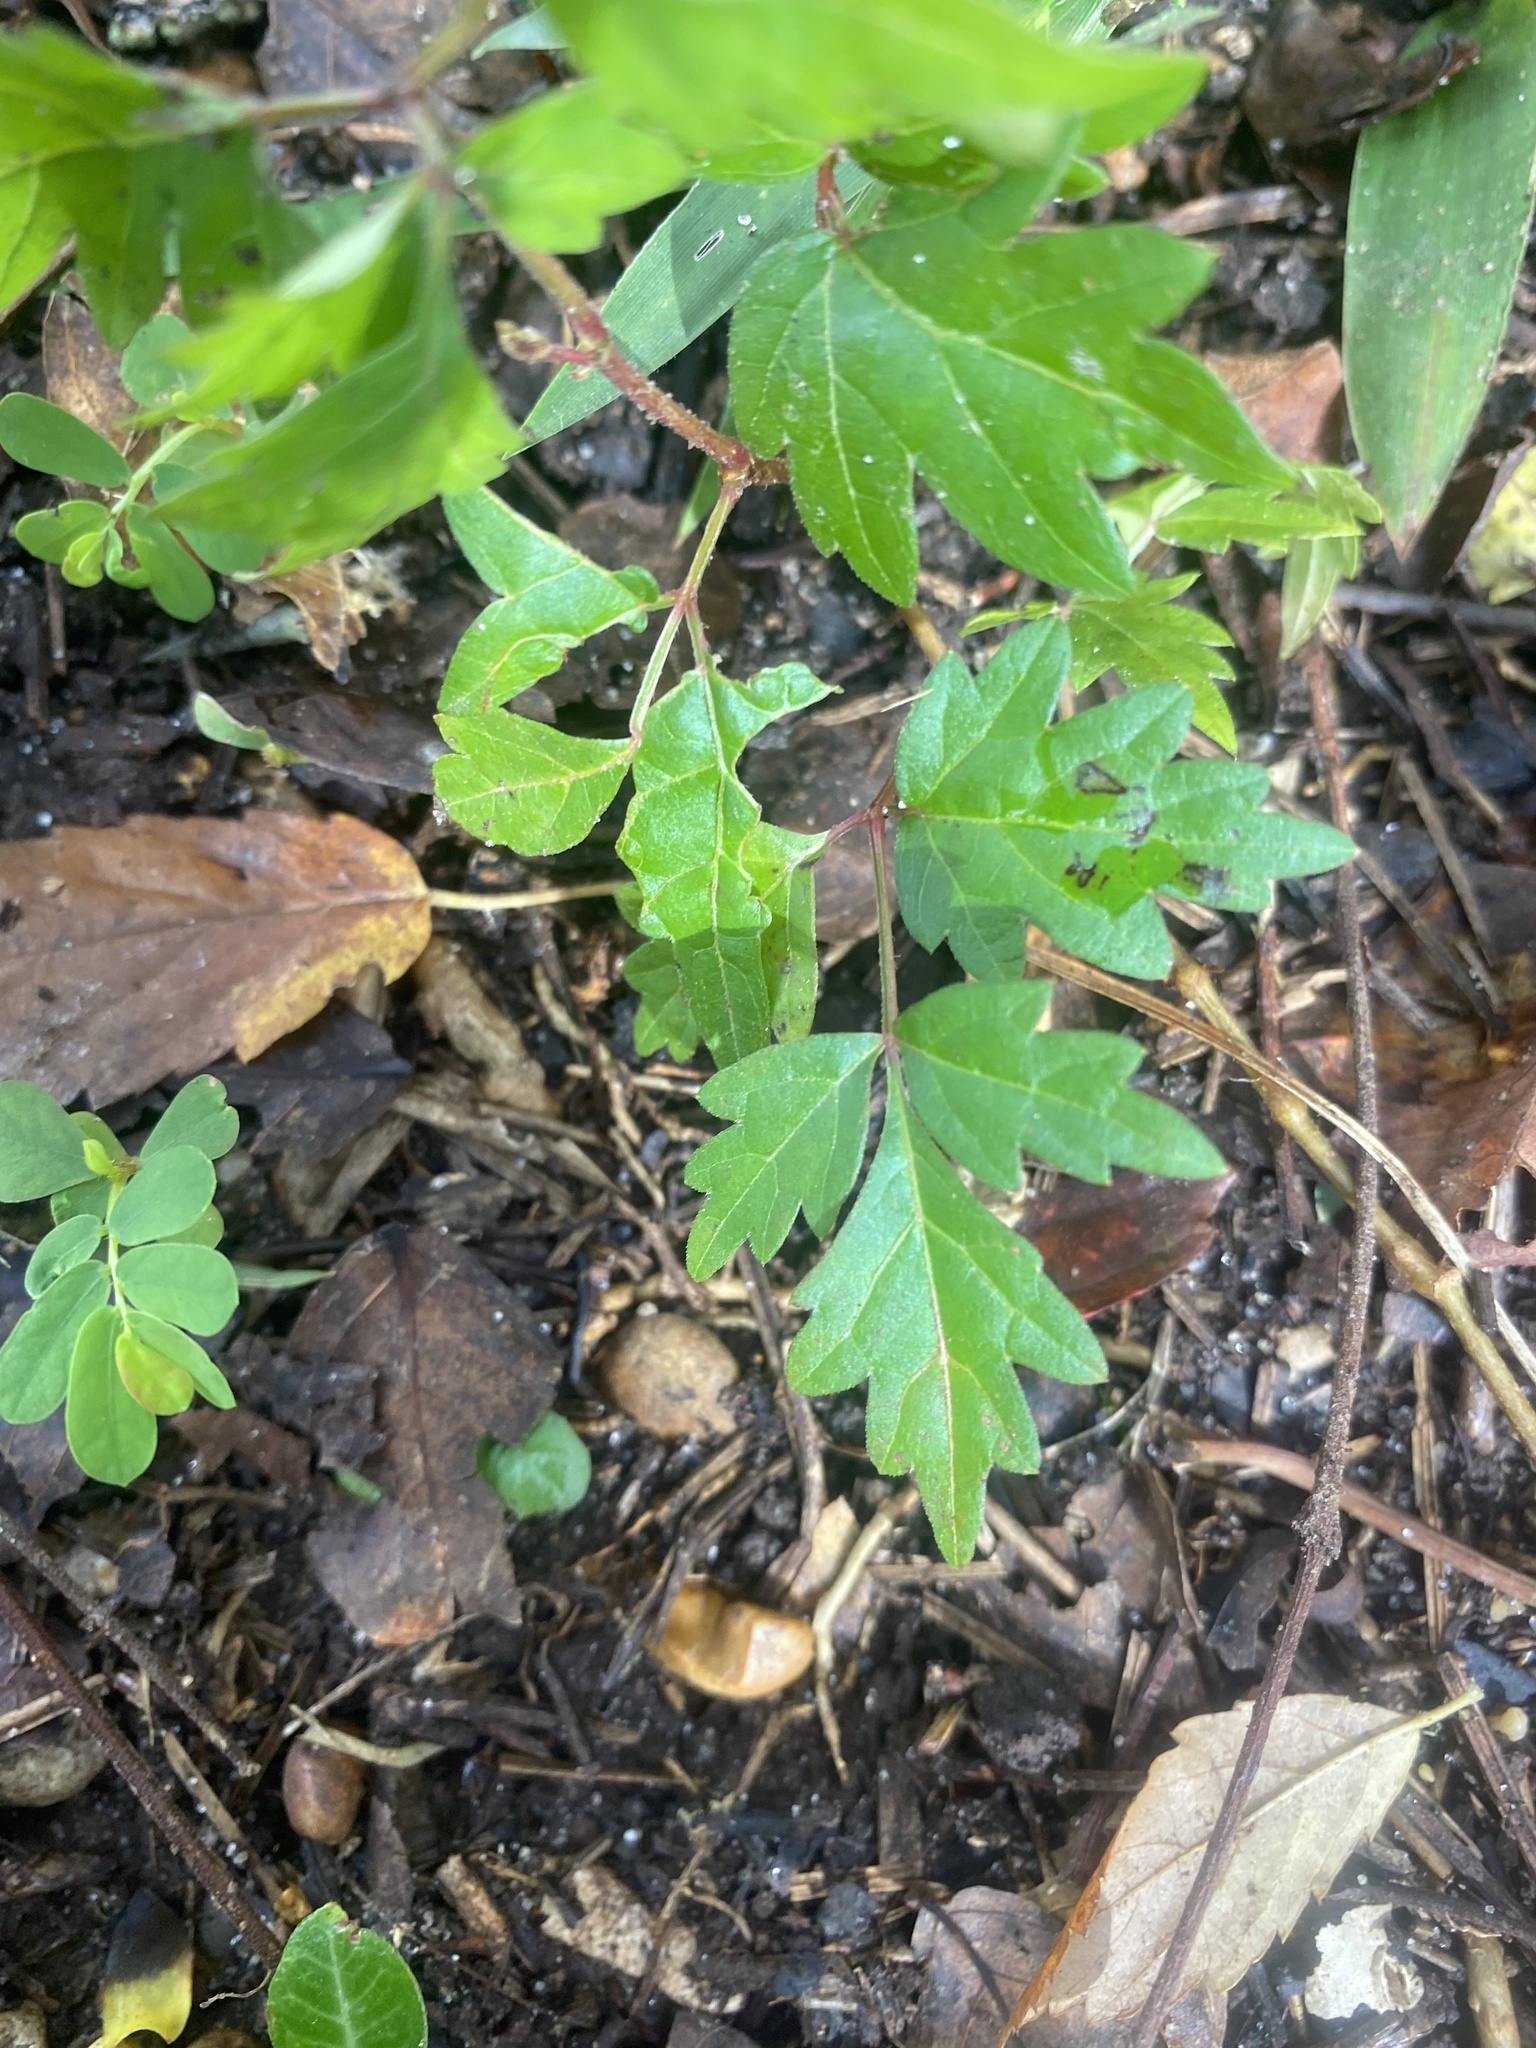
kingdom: Plantae
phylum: Tracheophyta
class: Magnoliopsida
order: Vitales
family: Vitaceae
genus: Nekemias
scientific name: Nekemias arborea
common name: Peppervine
